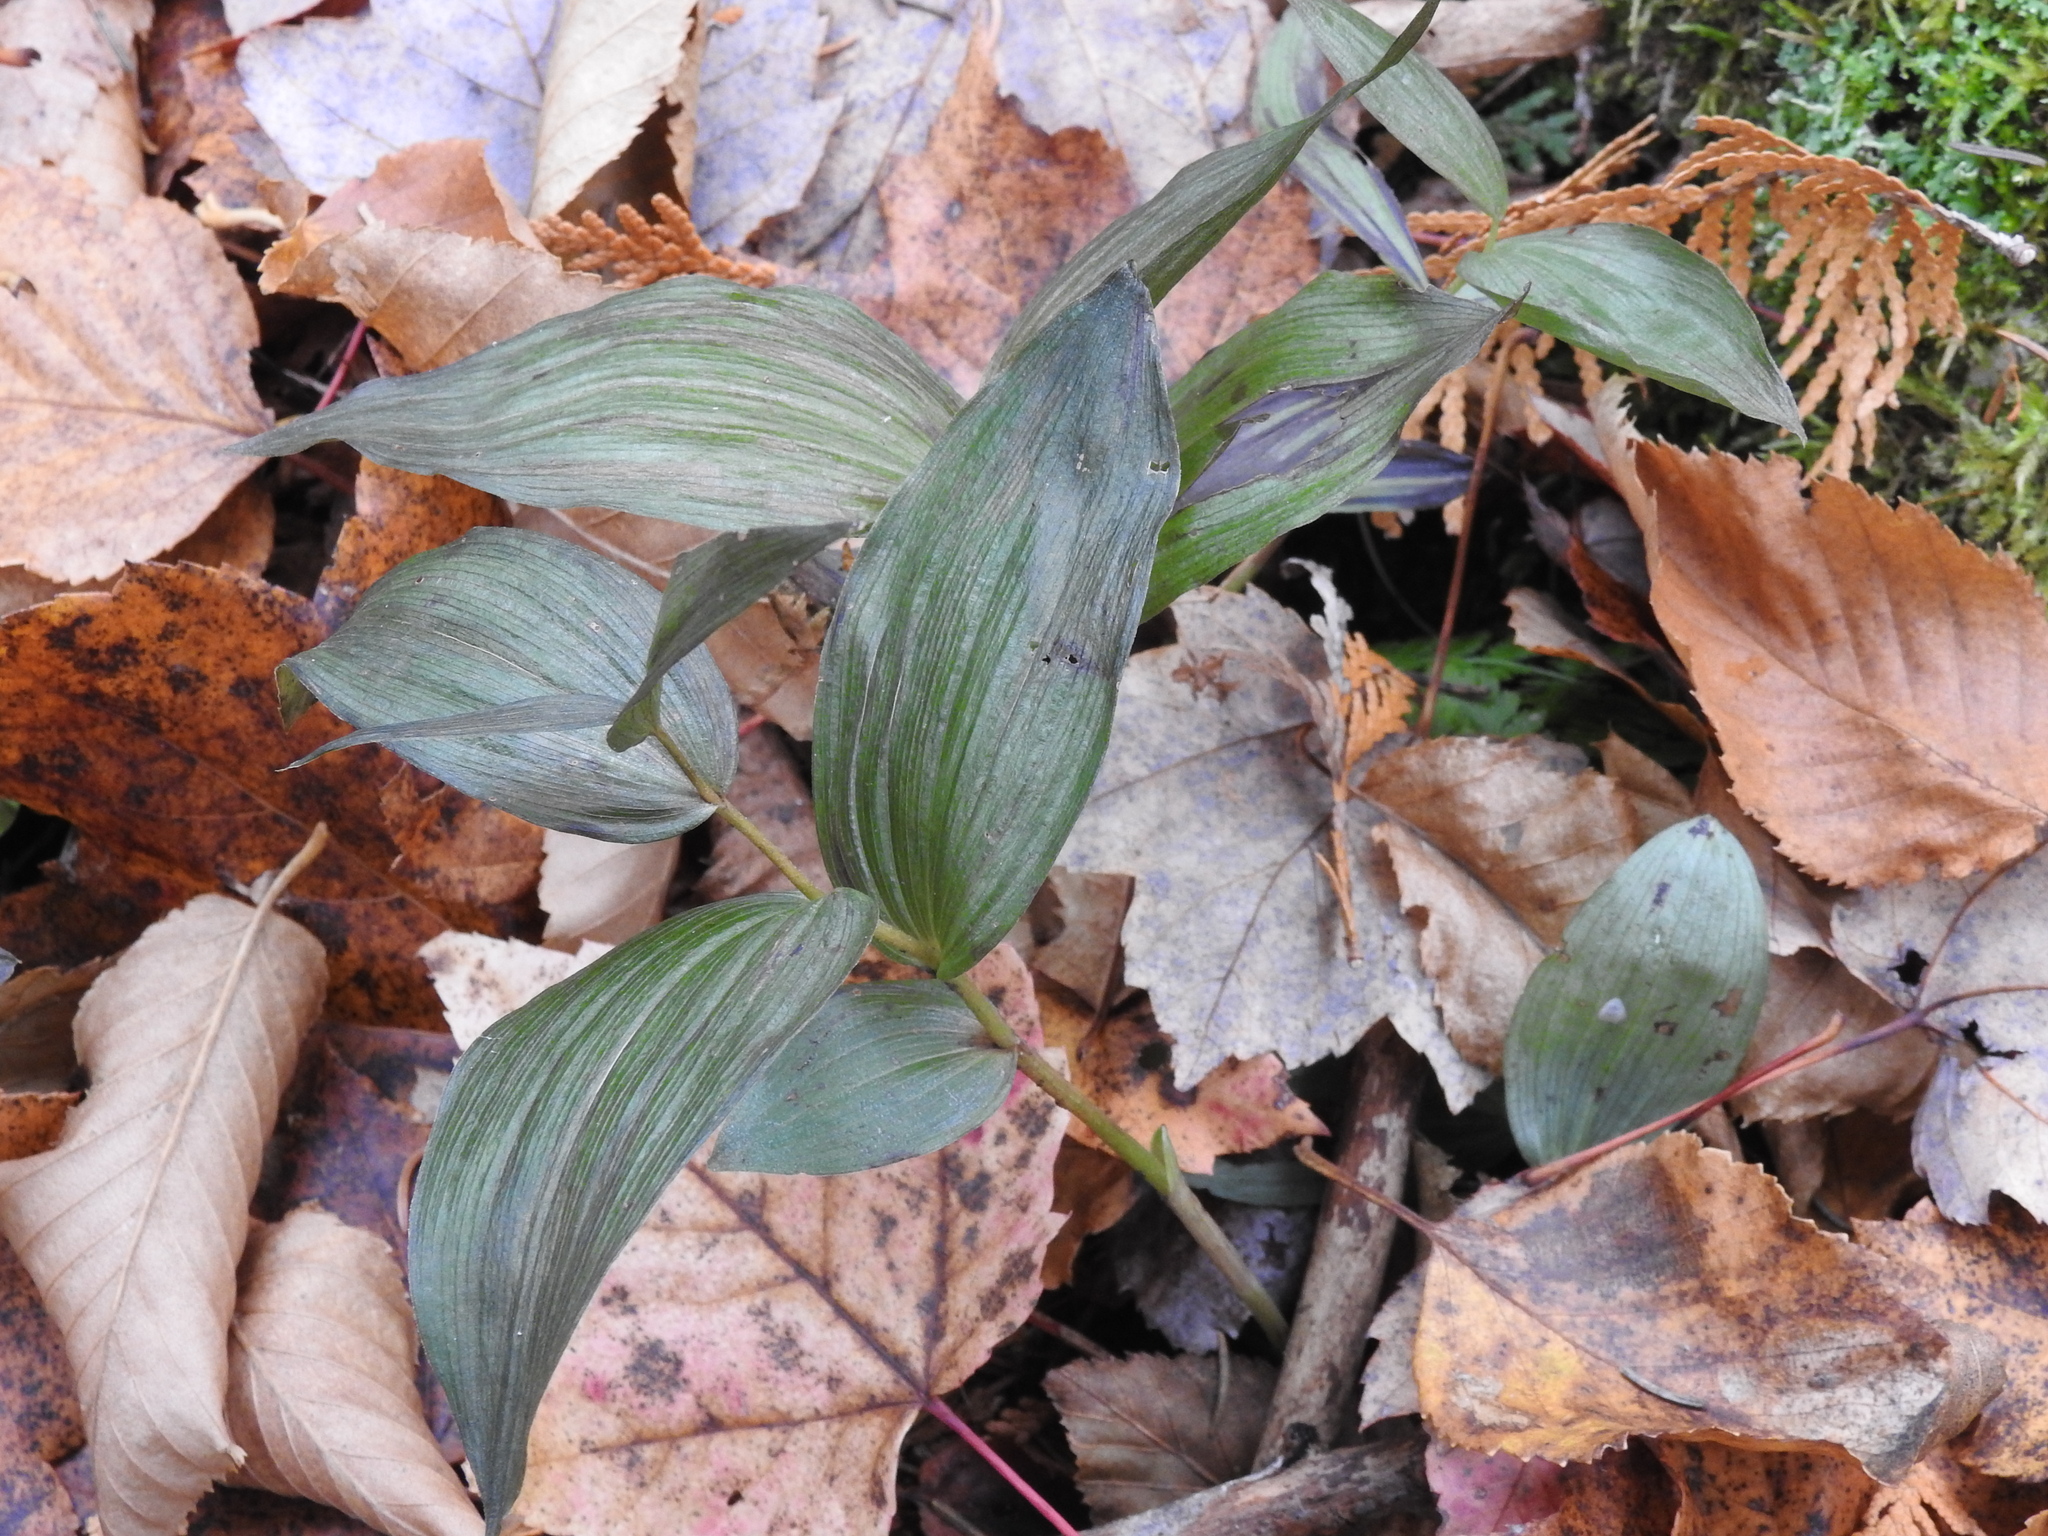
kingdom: Plantae
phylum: Tracheophyta
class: Liliopsida
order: Asparagales
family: Orchidaceae
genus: Epipactis
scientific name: Epipactis helleborine
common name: Broad-leaved helleborine
